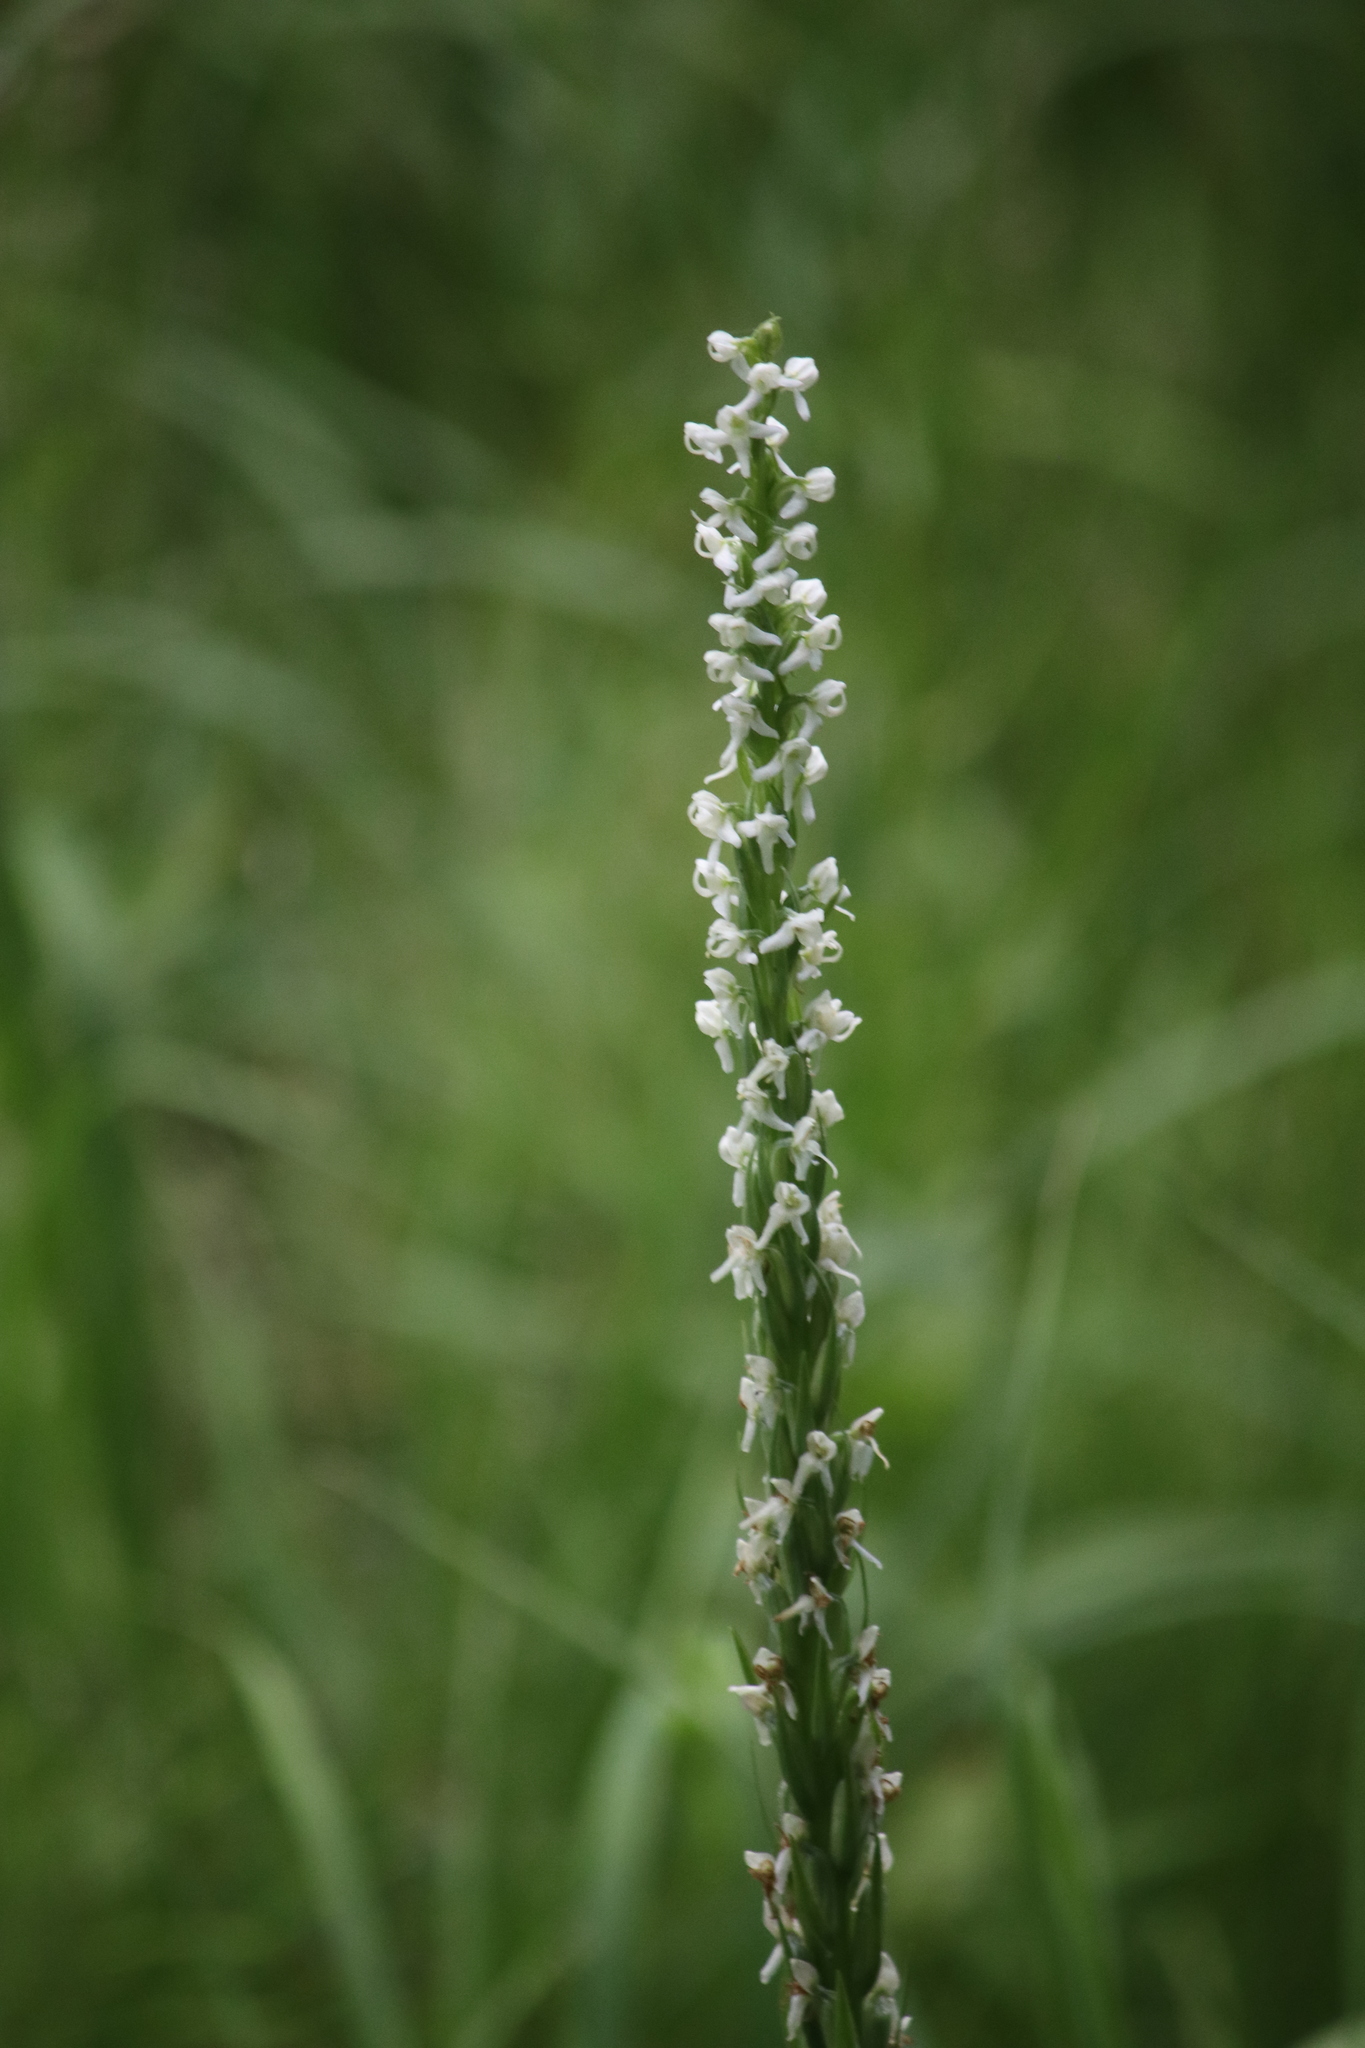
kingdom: Plantae
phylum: Tracheophyta
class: Liliopsida
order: Asparagales
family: Orchidaceae
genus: Platanthera
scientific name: Platanthera dilatata
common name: Bog candles
